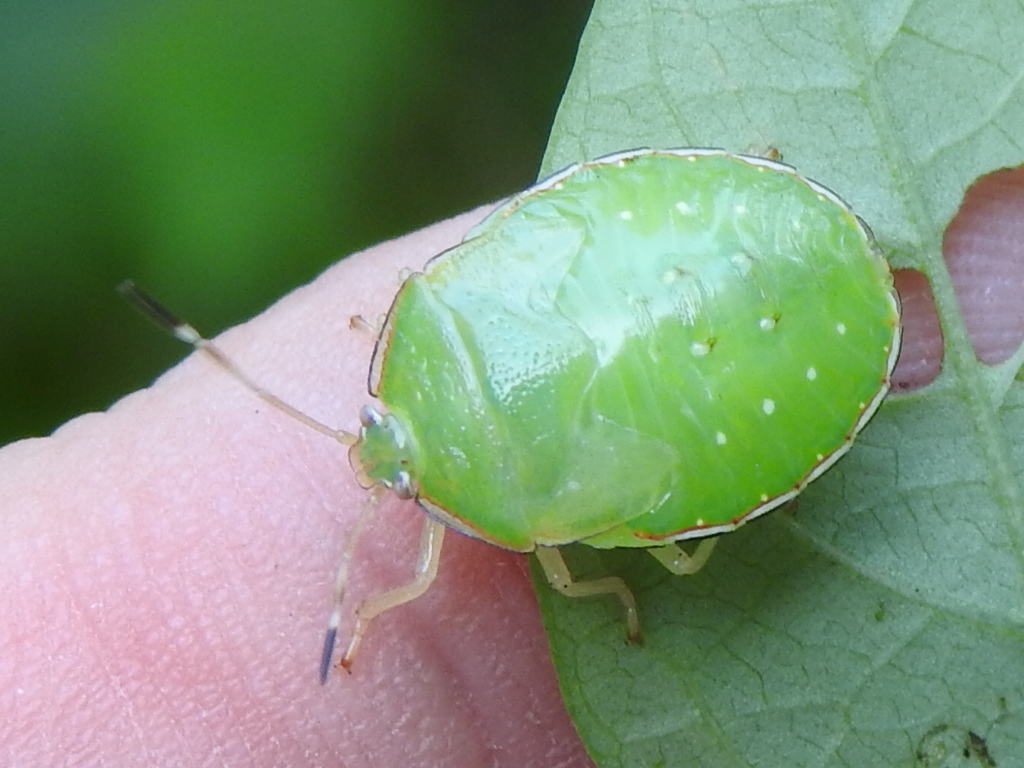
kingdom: Animalia
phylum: Arthropoda
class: Insecta
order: Hemiptera
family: Pentatomidae
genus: Edessa
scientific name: Edessa bifida
